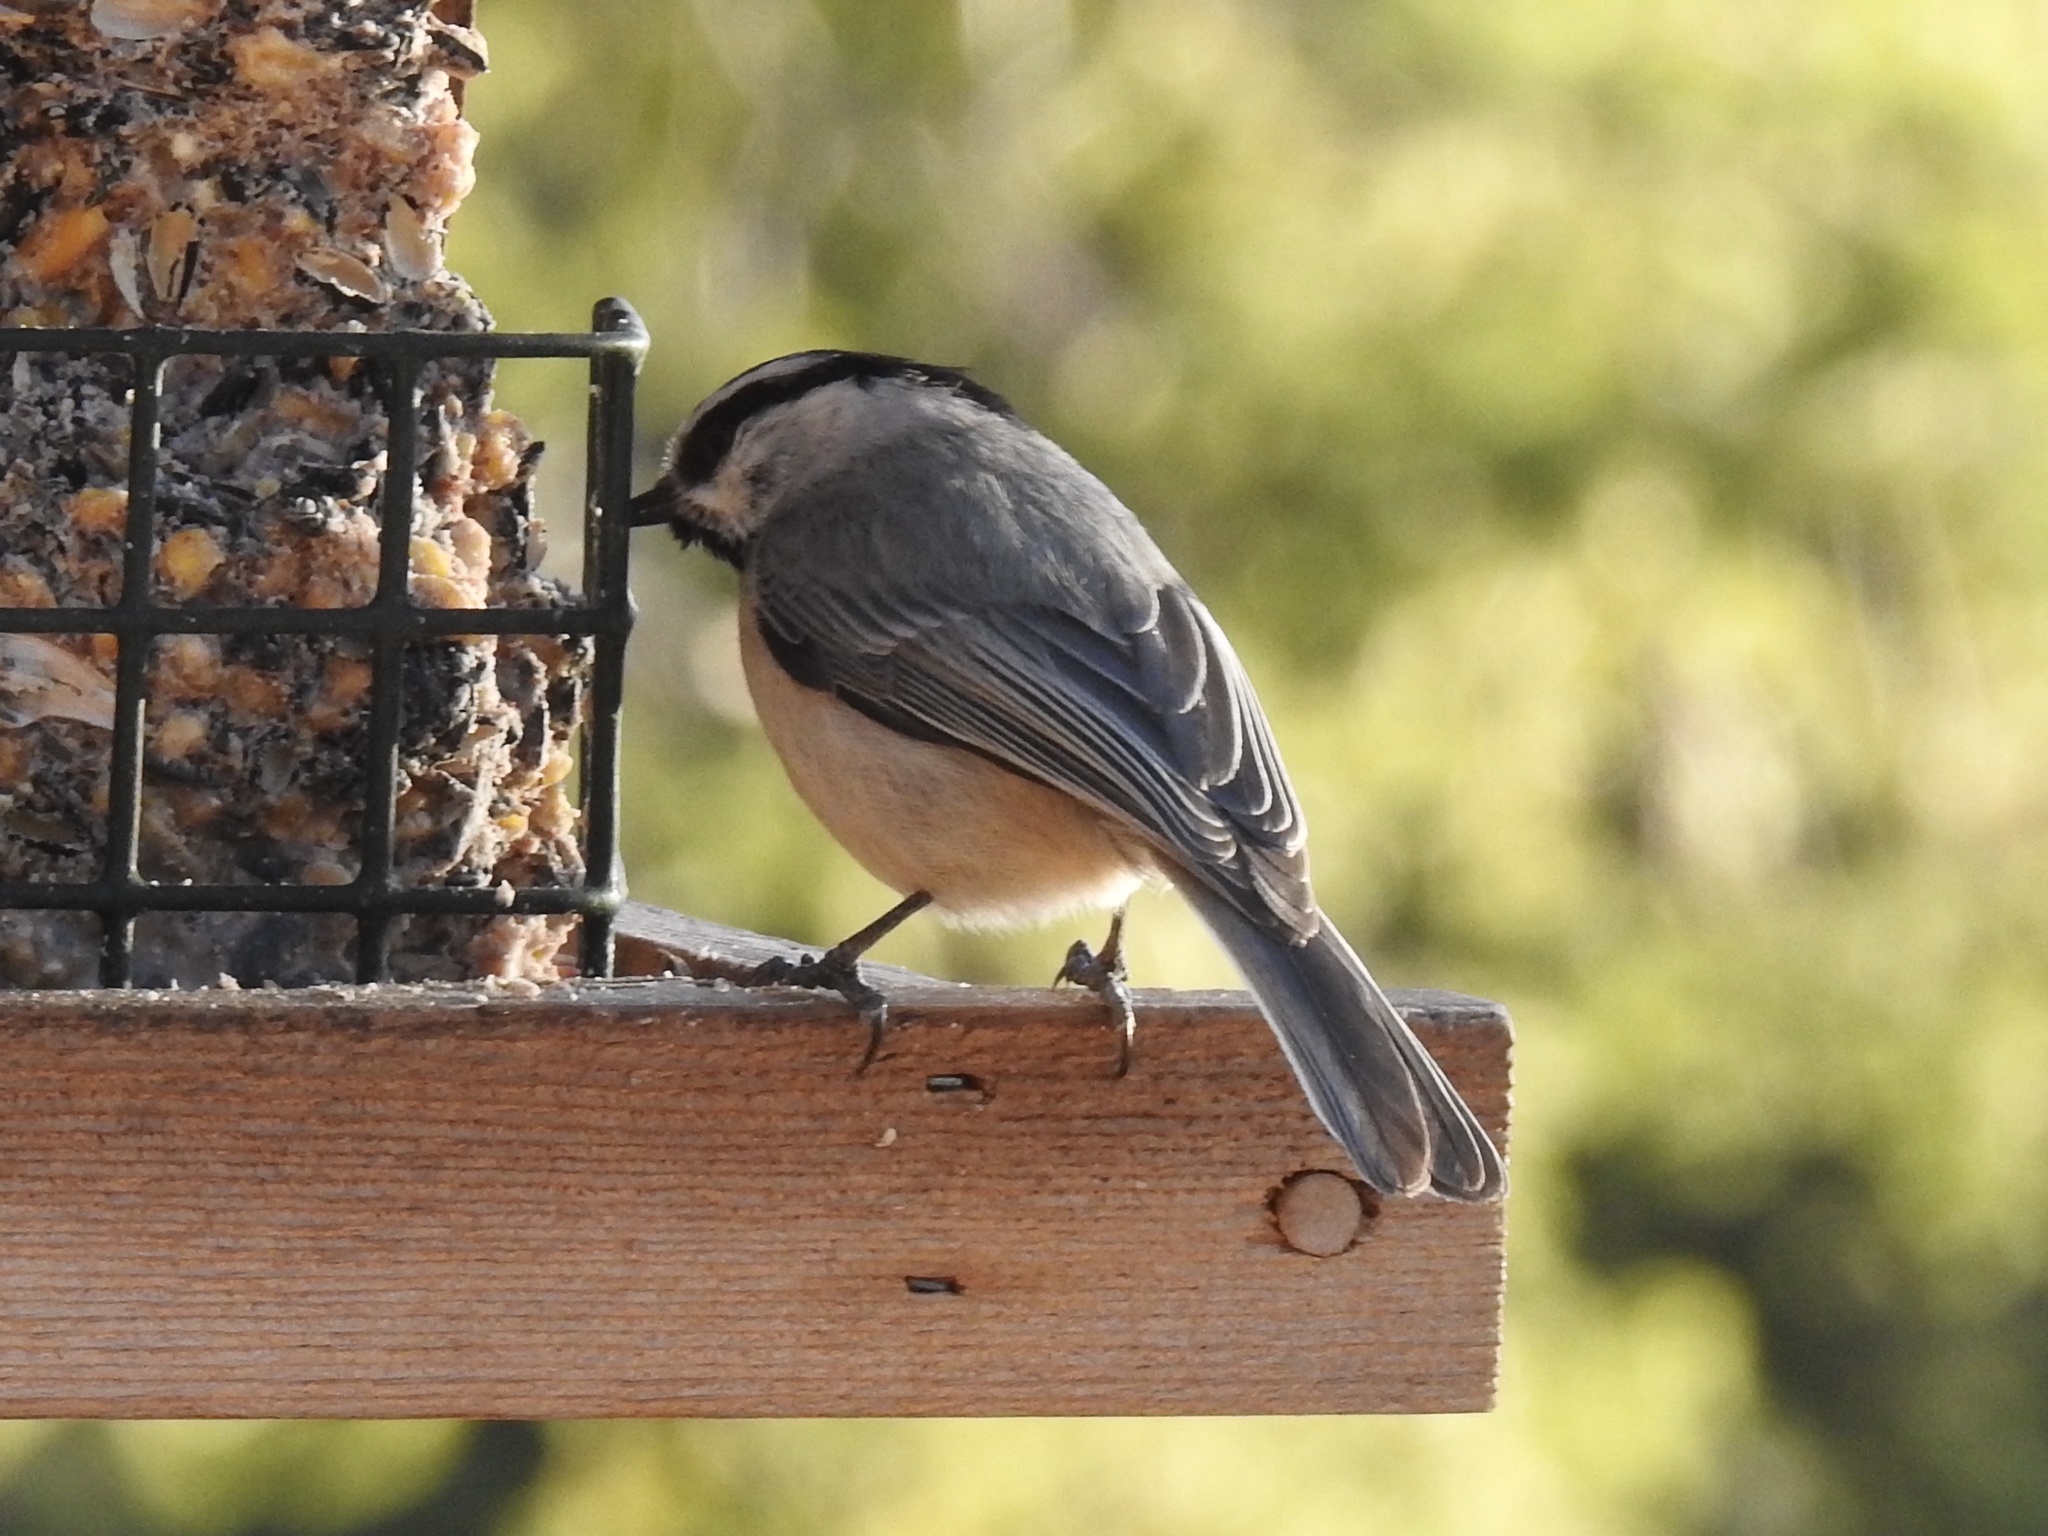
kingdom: Animalia
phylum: Chordata
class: Aves
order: Passeriformes
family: Paridae
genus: Poecile
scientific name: Poecile gambeli
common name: Mountain chickadee
